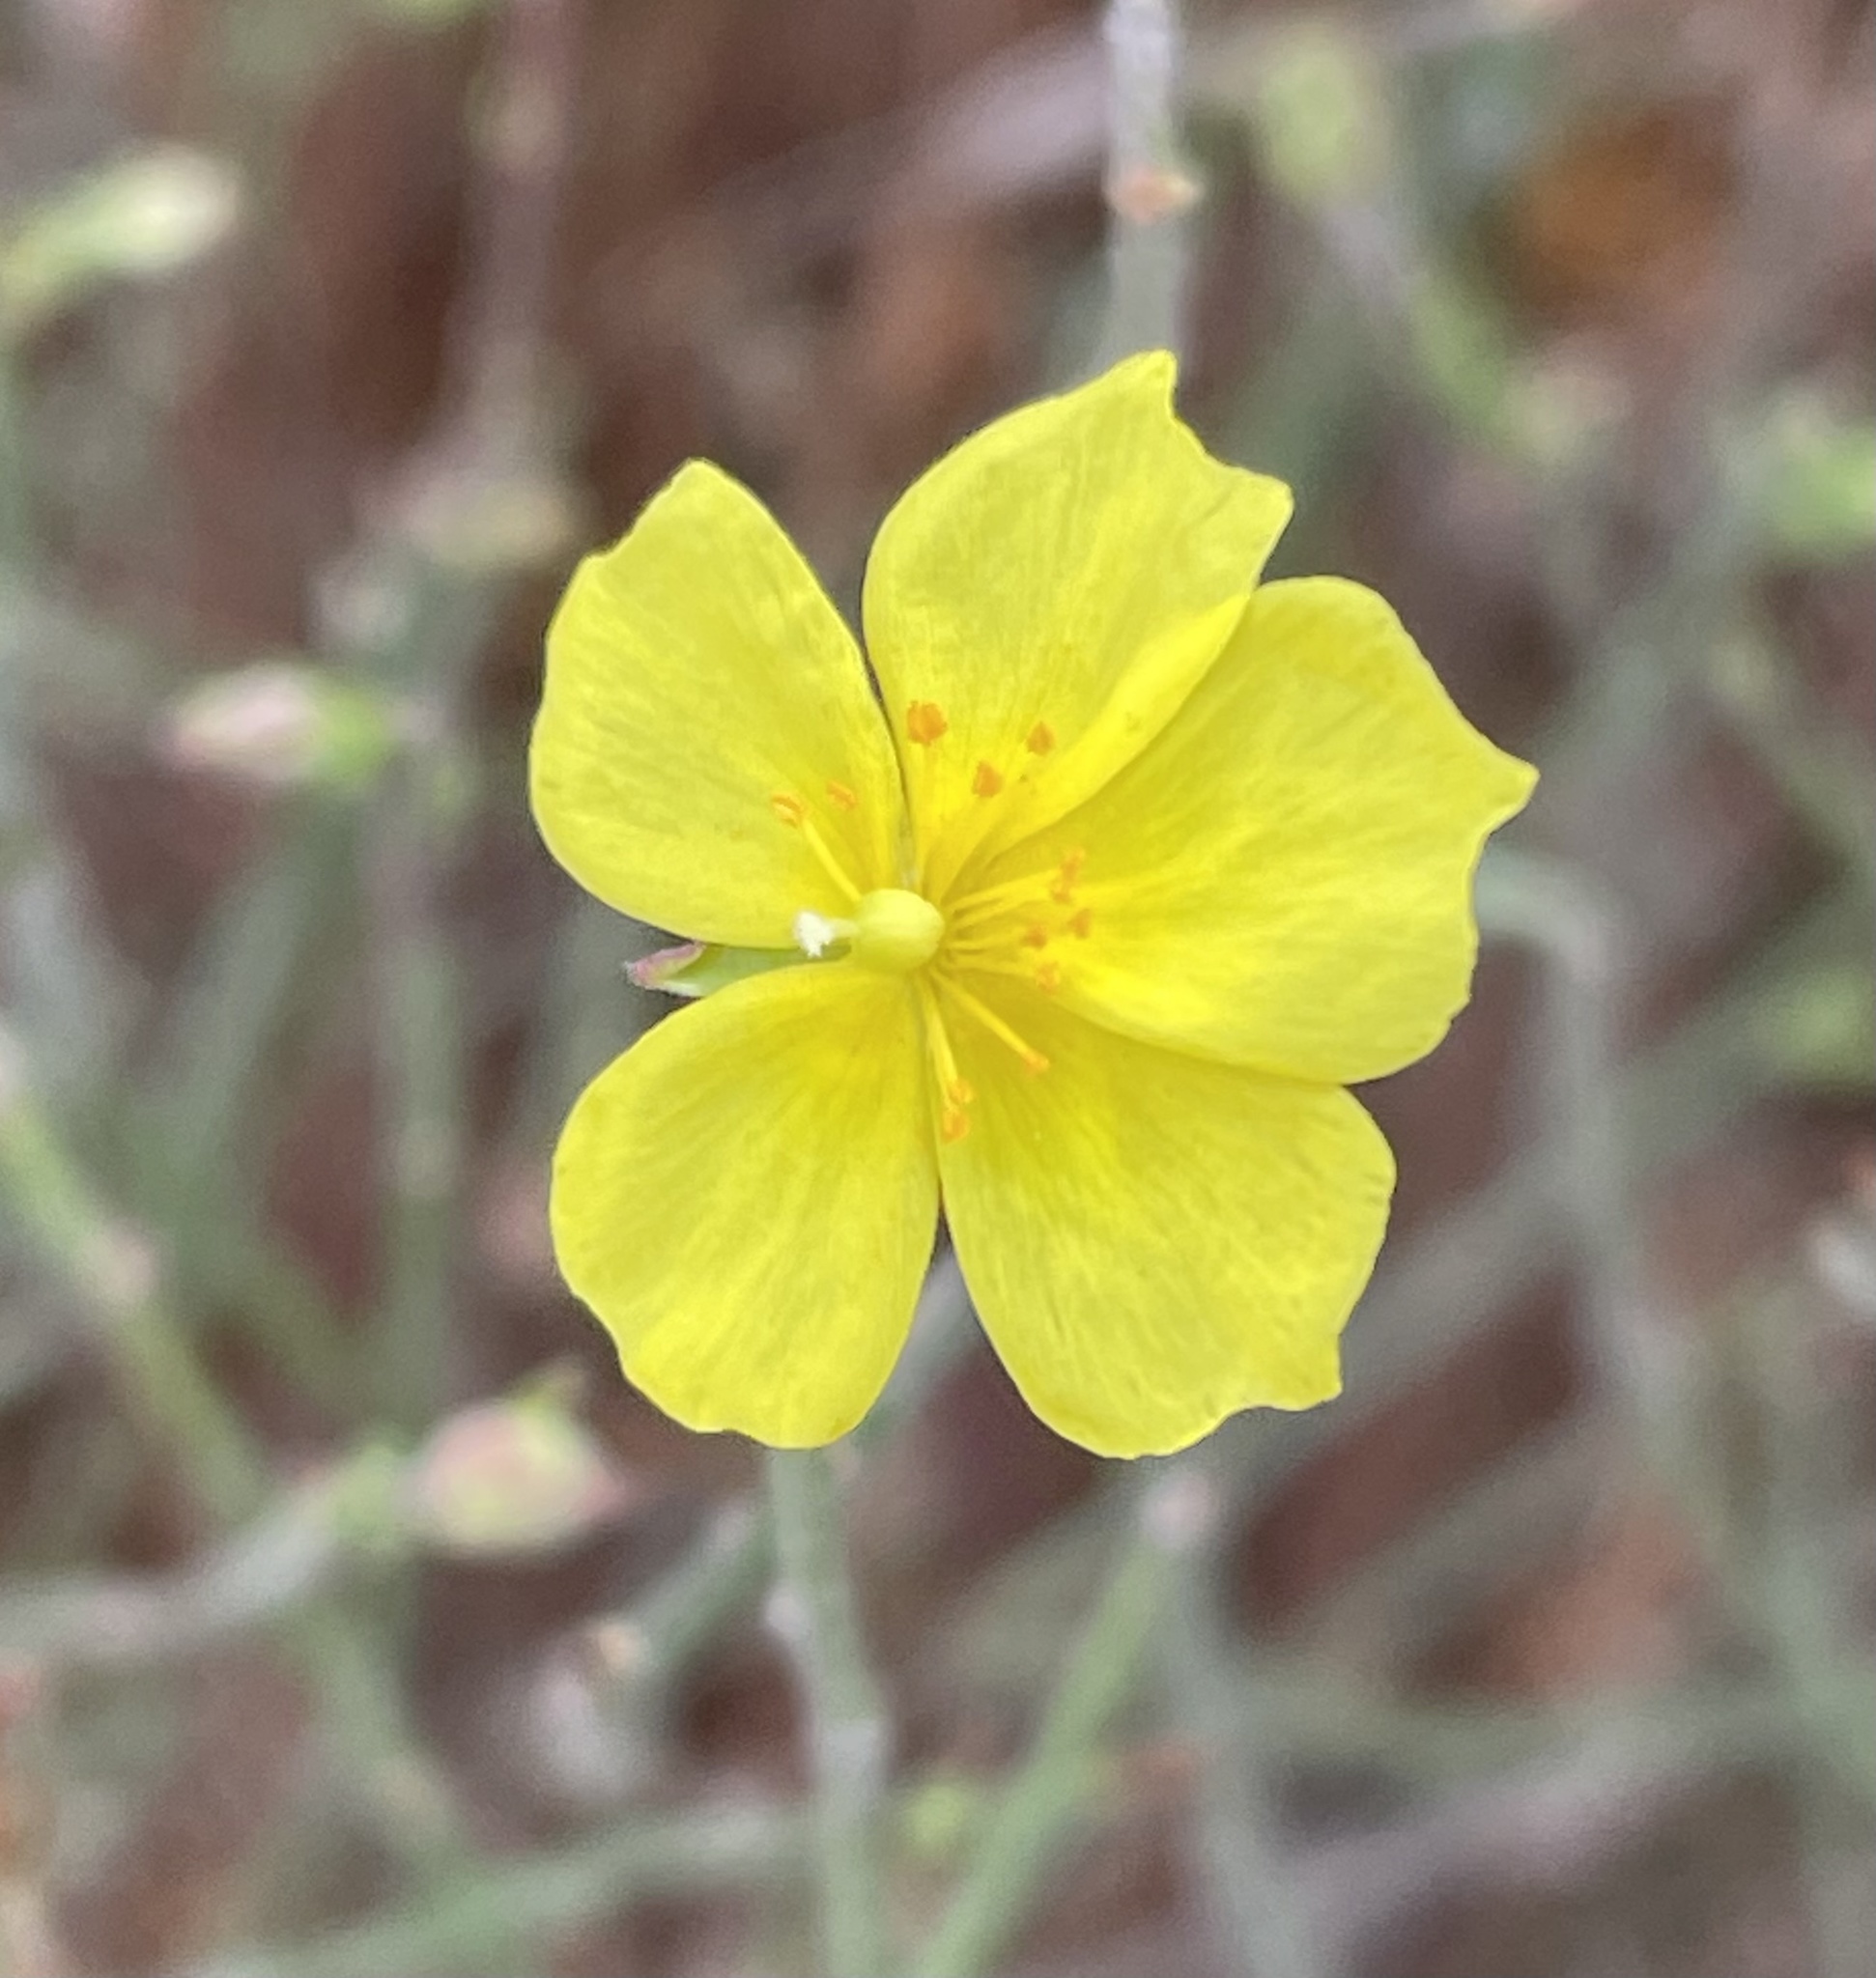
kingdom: Plantae
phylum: Tracheophyta
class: Magnoliopsida
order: Malvales
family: Cistaceae
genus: Crocanthemum
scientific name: Crocanthemum scoparium
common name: Broom-rose
